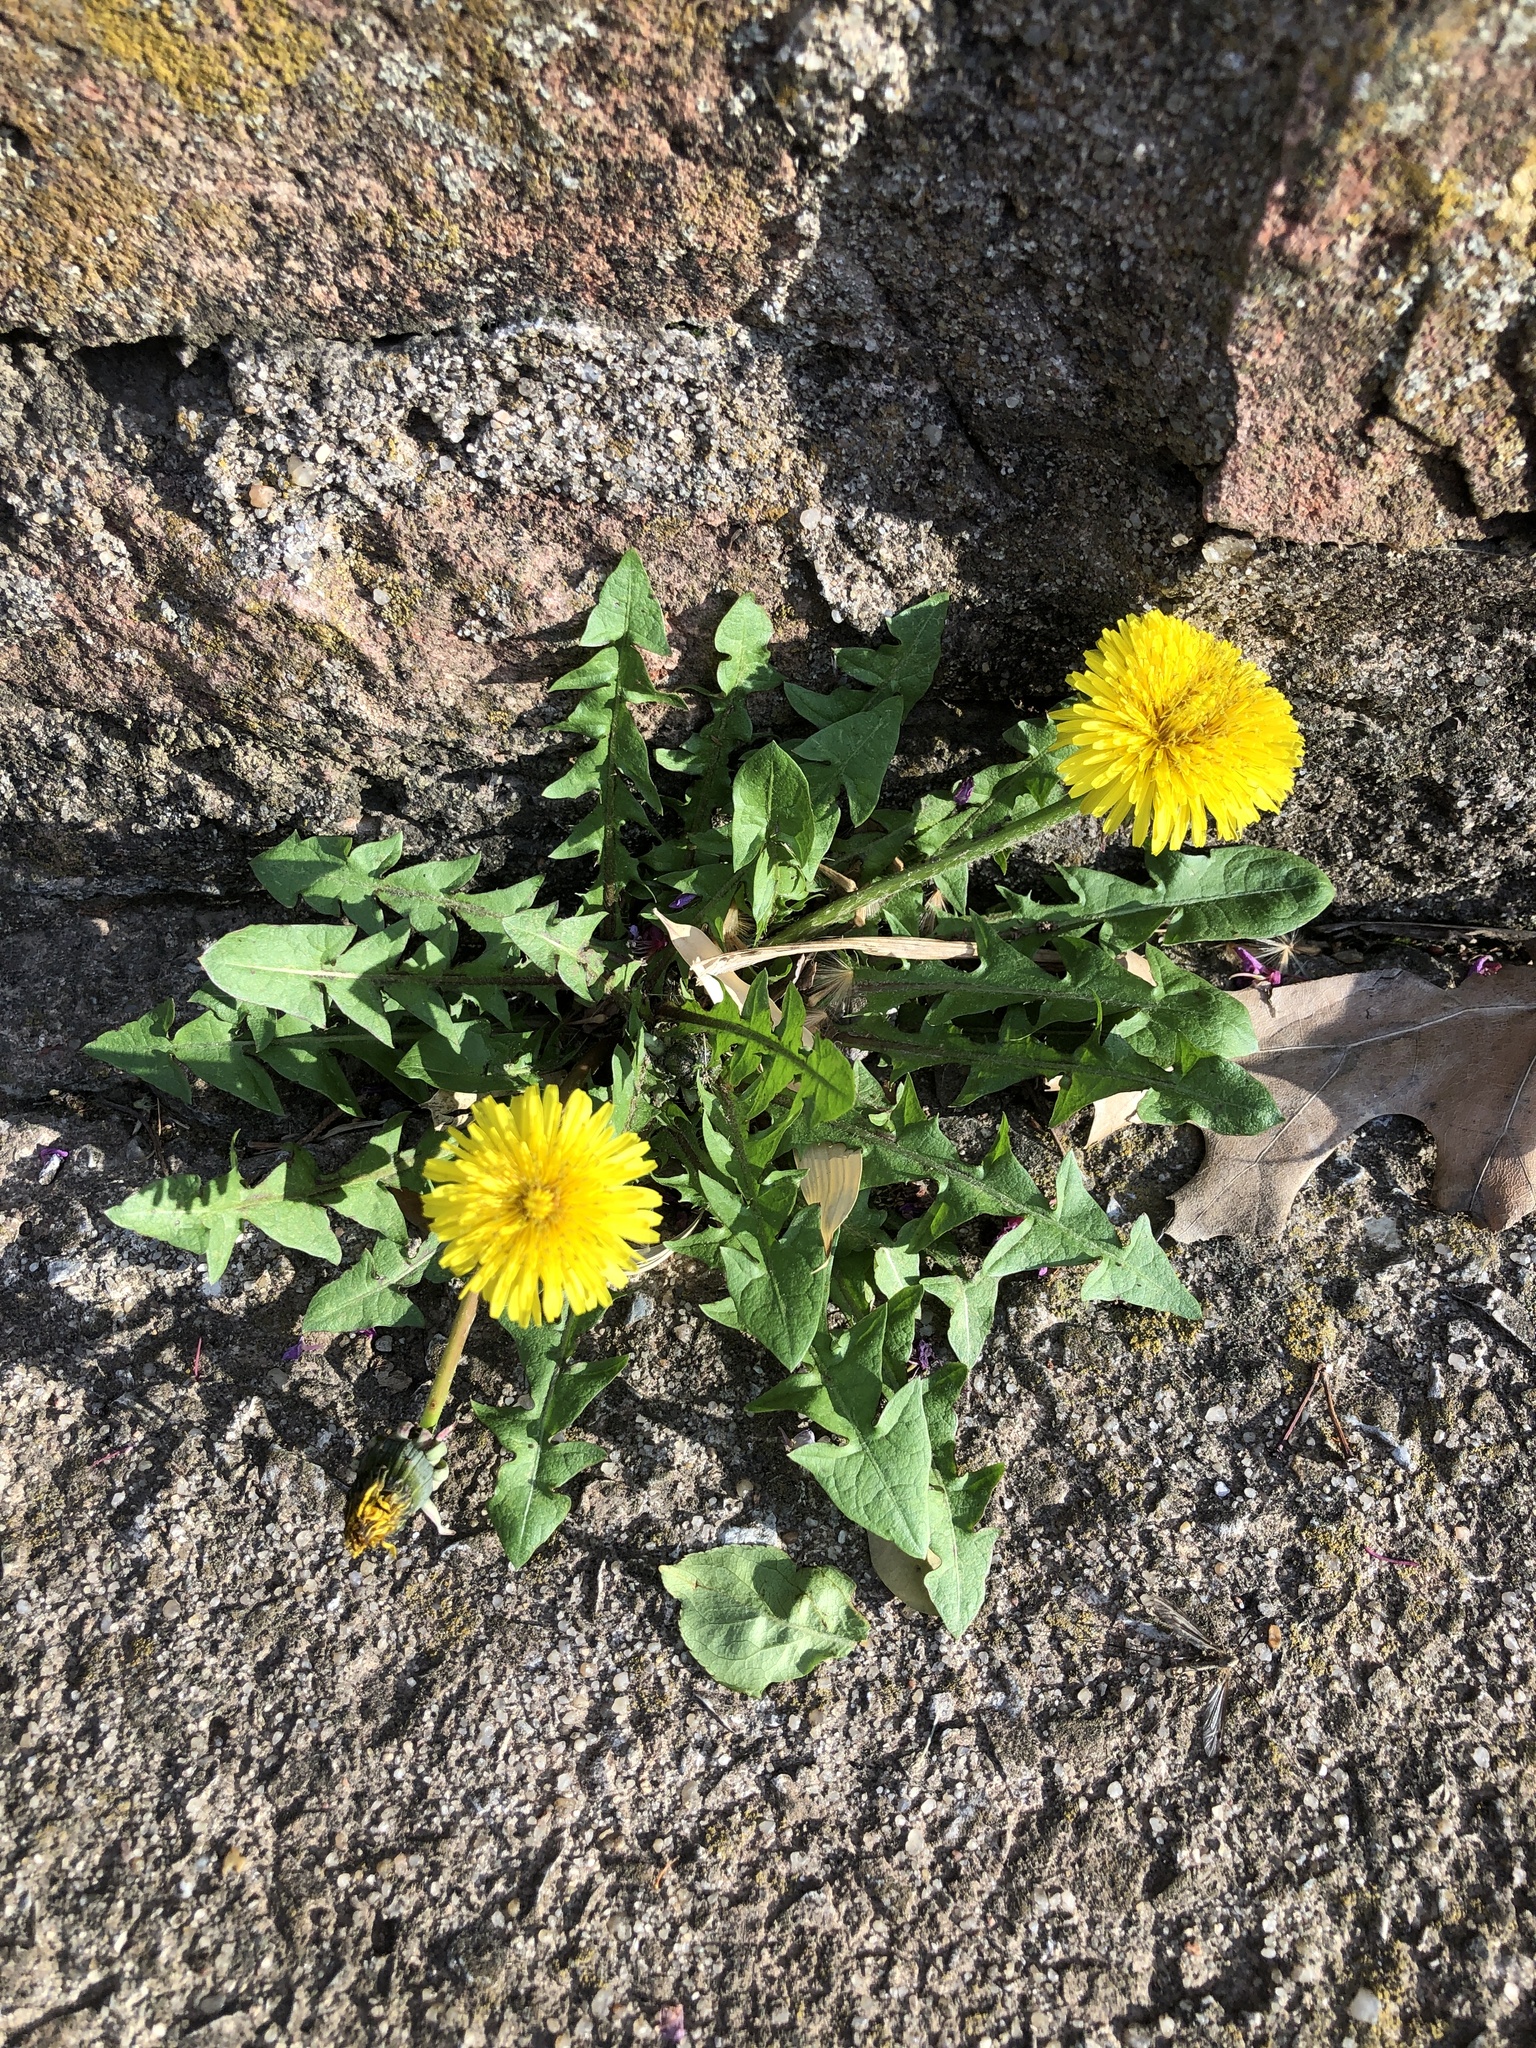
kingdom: Plantae
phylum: Tracheophyta
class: Magnoliopsida
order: Asterales
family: Asteraceae
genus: Taraxacum
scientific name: Taraxacum
